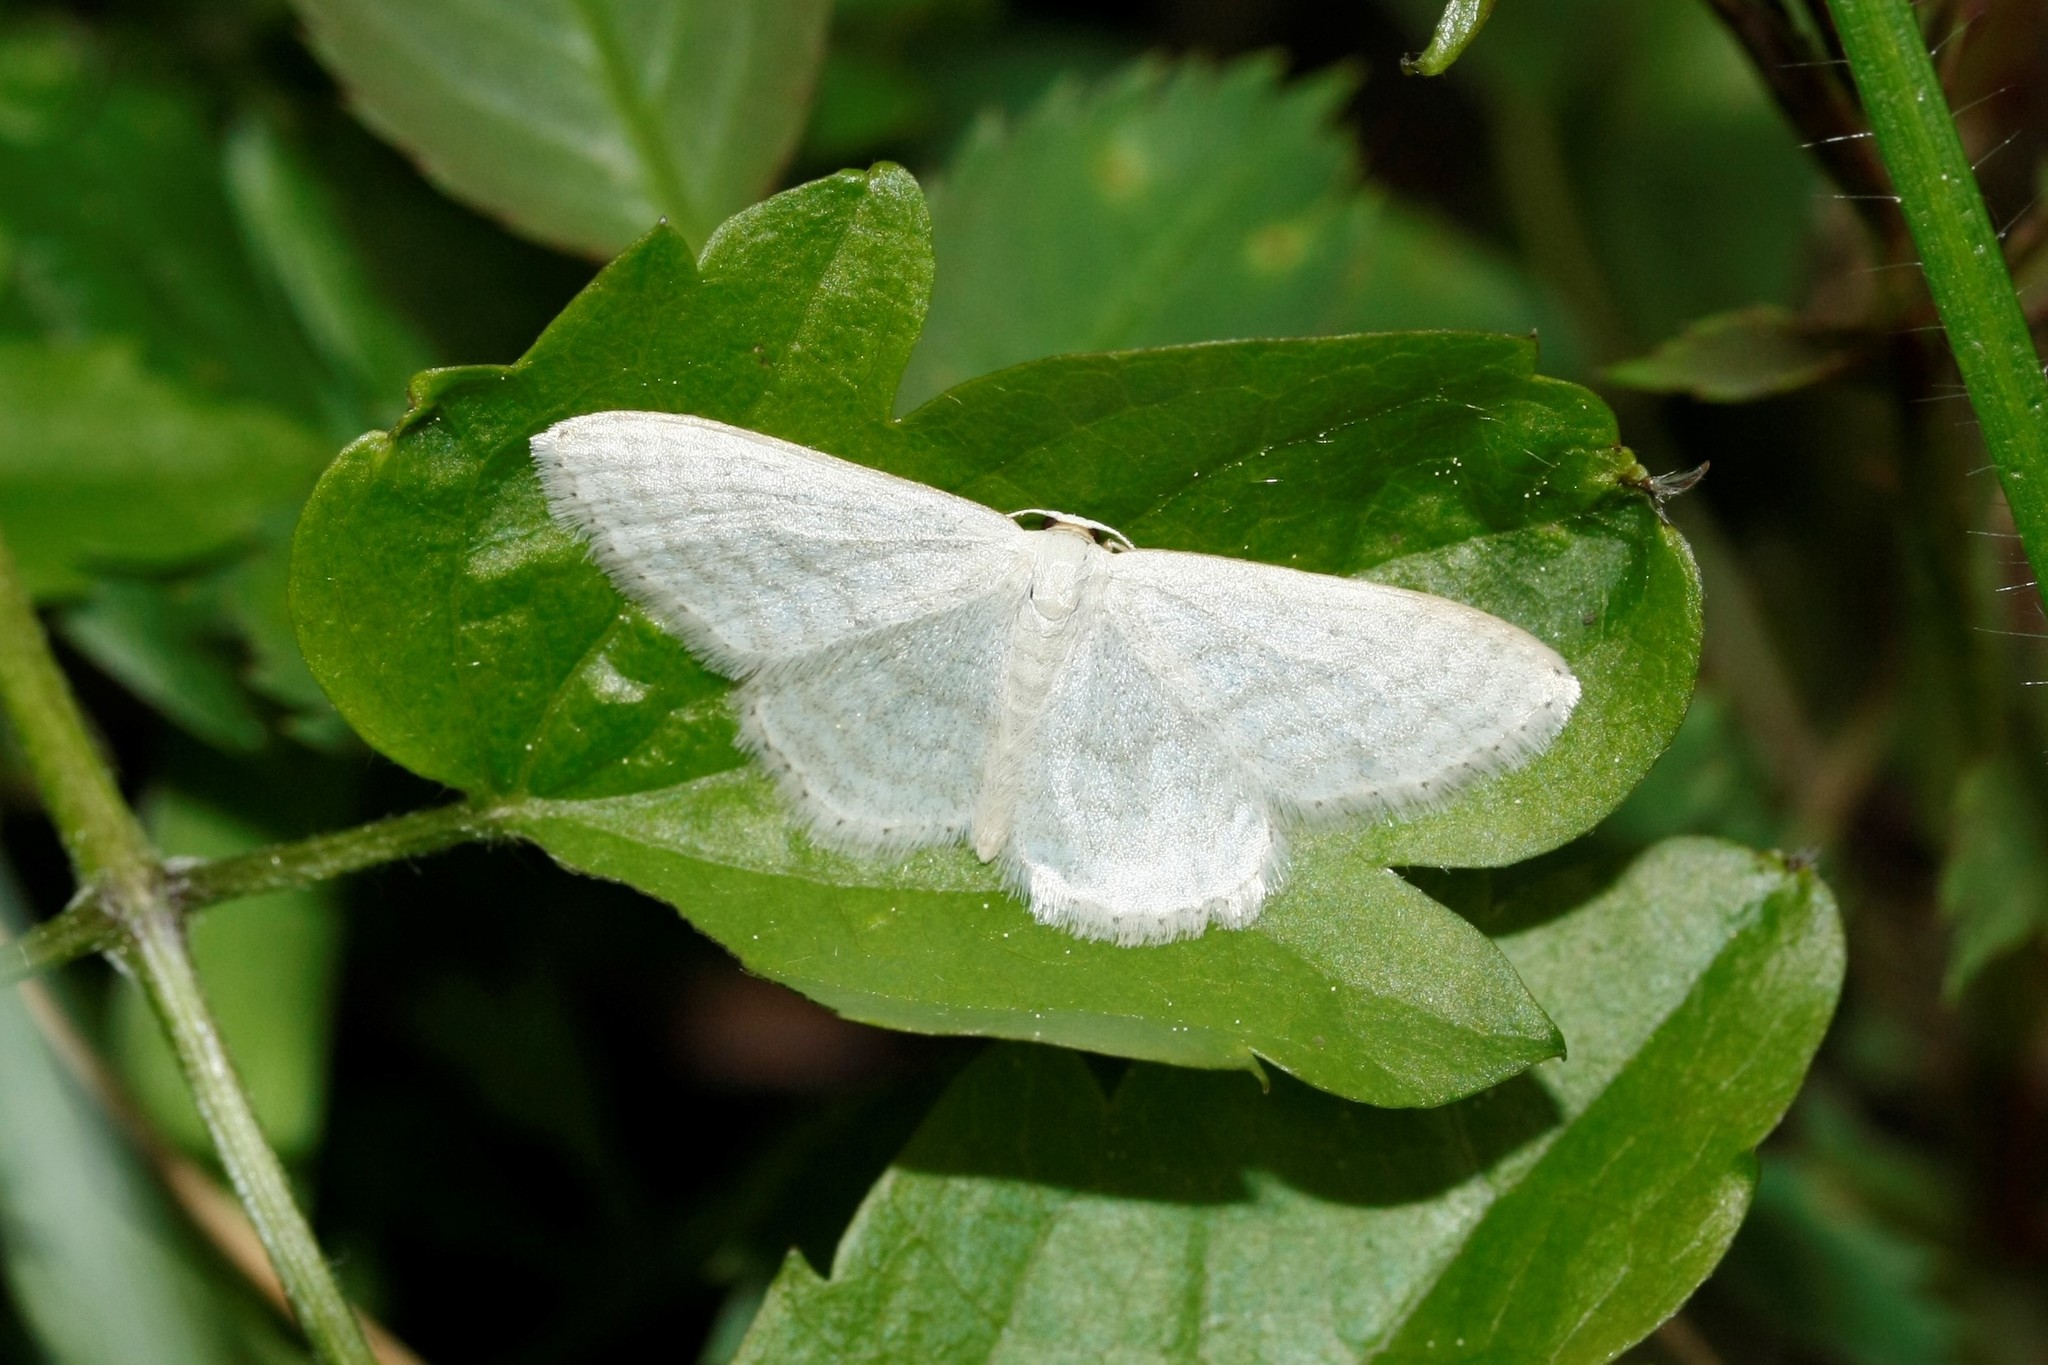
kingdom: Animalia
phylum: Arthropoda
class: Insecta
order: Lepidoptera
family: Geometridae
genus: Idaea
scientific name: Idaea subsericeata
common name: Satin wave
